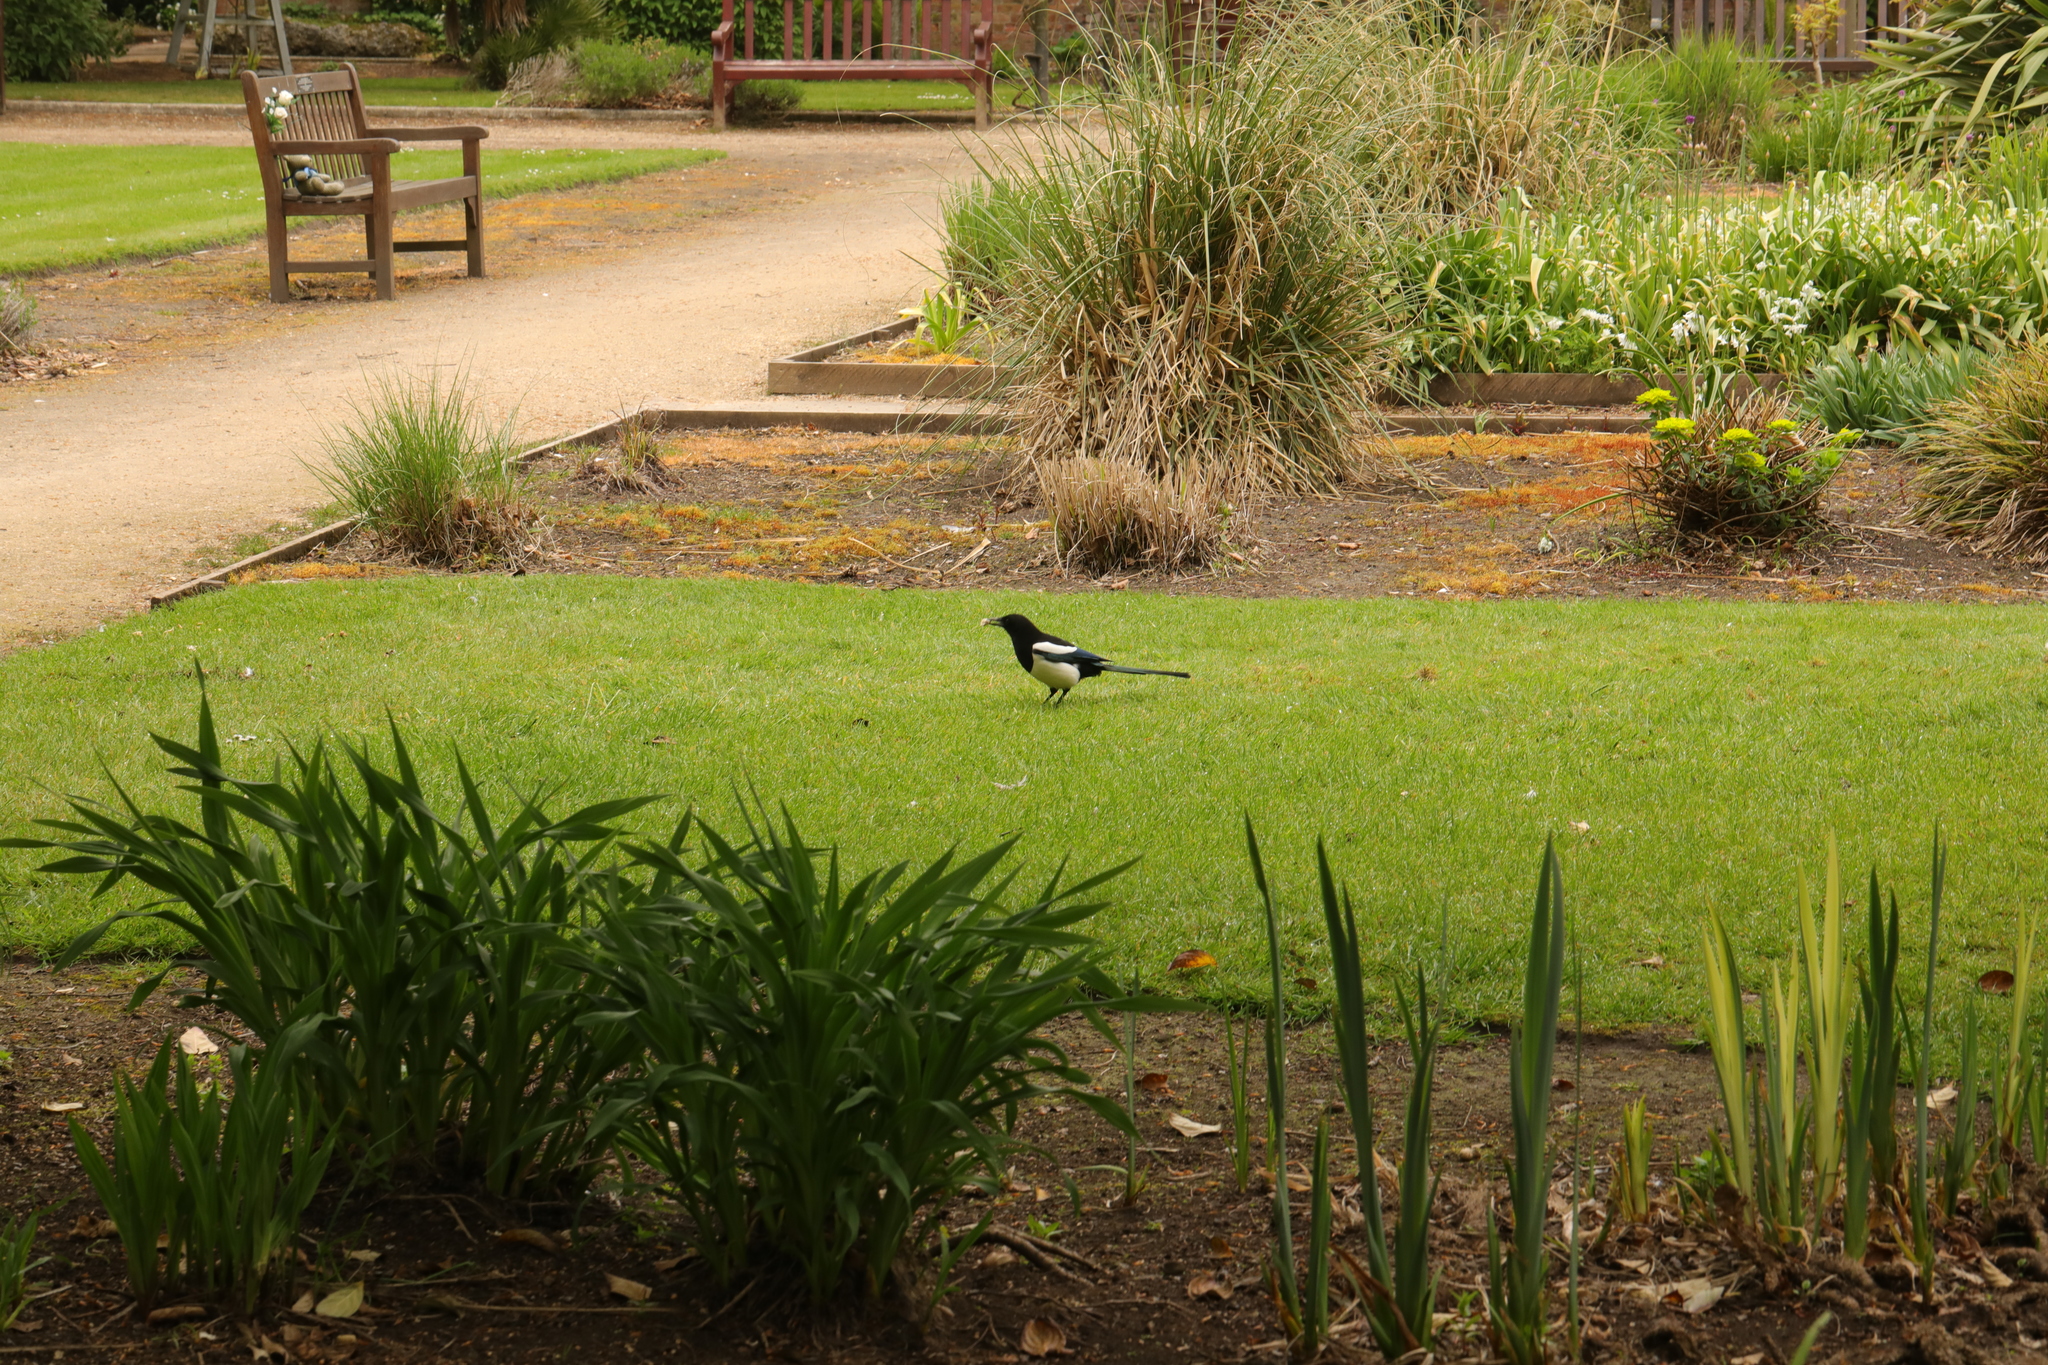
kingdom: Animalia
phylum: Chordata
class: Aves
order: Passeriformes
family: Corvidae
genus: Pica
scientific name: Pica pica
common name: Eurasian magpie
